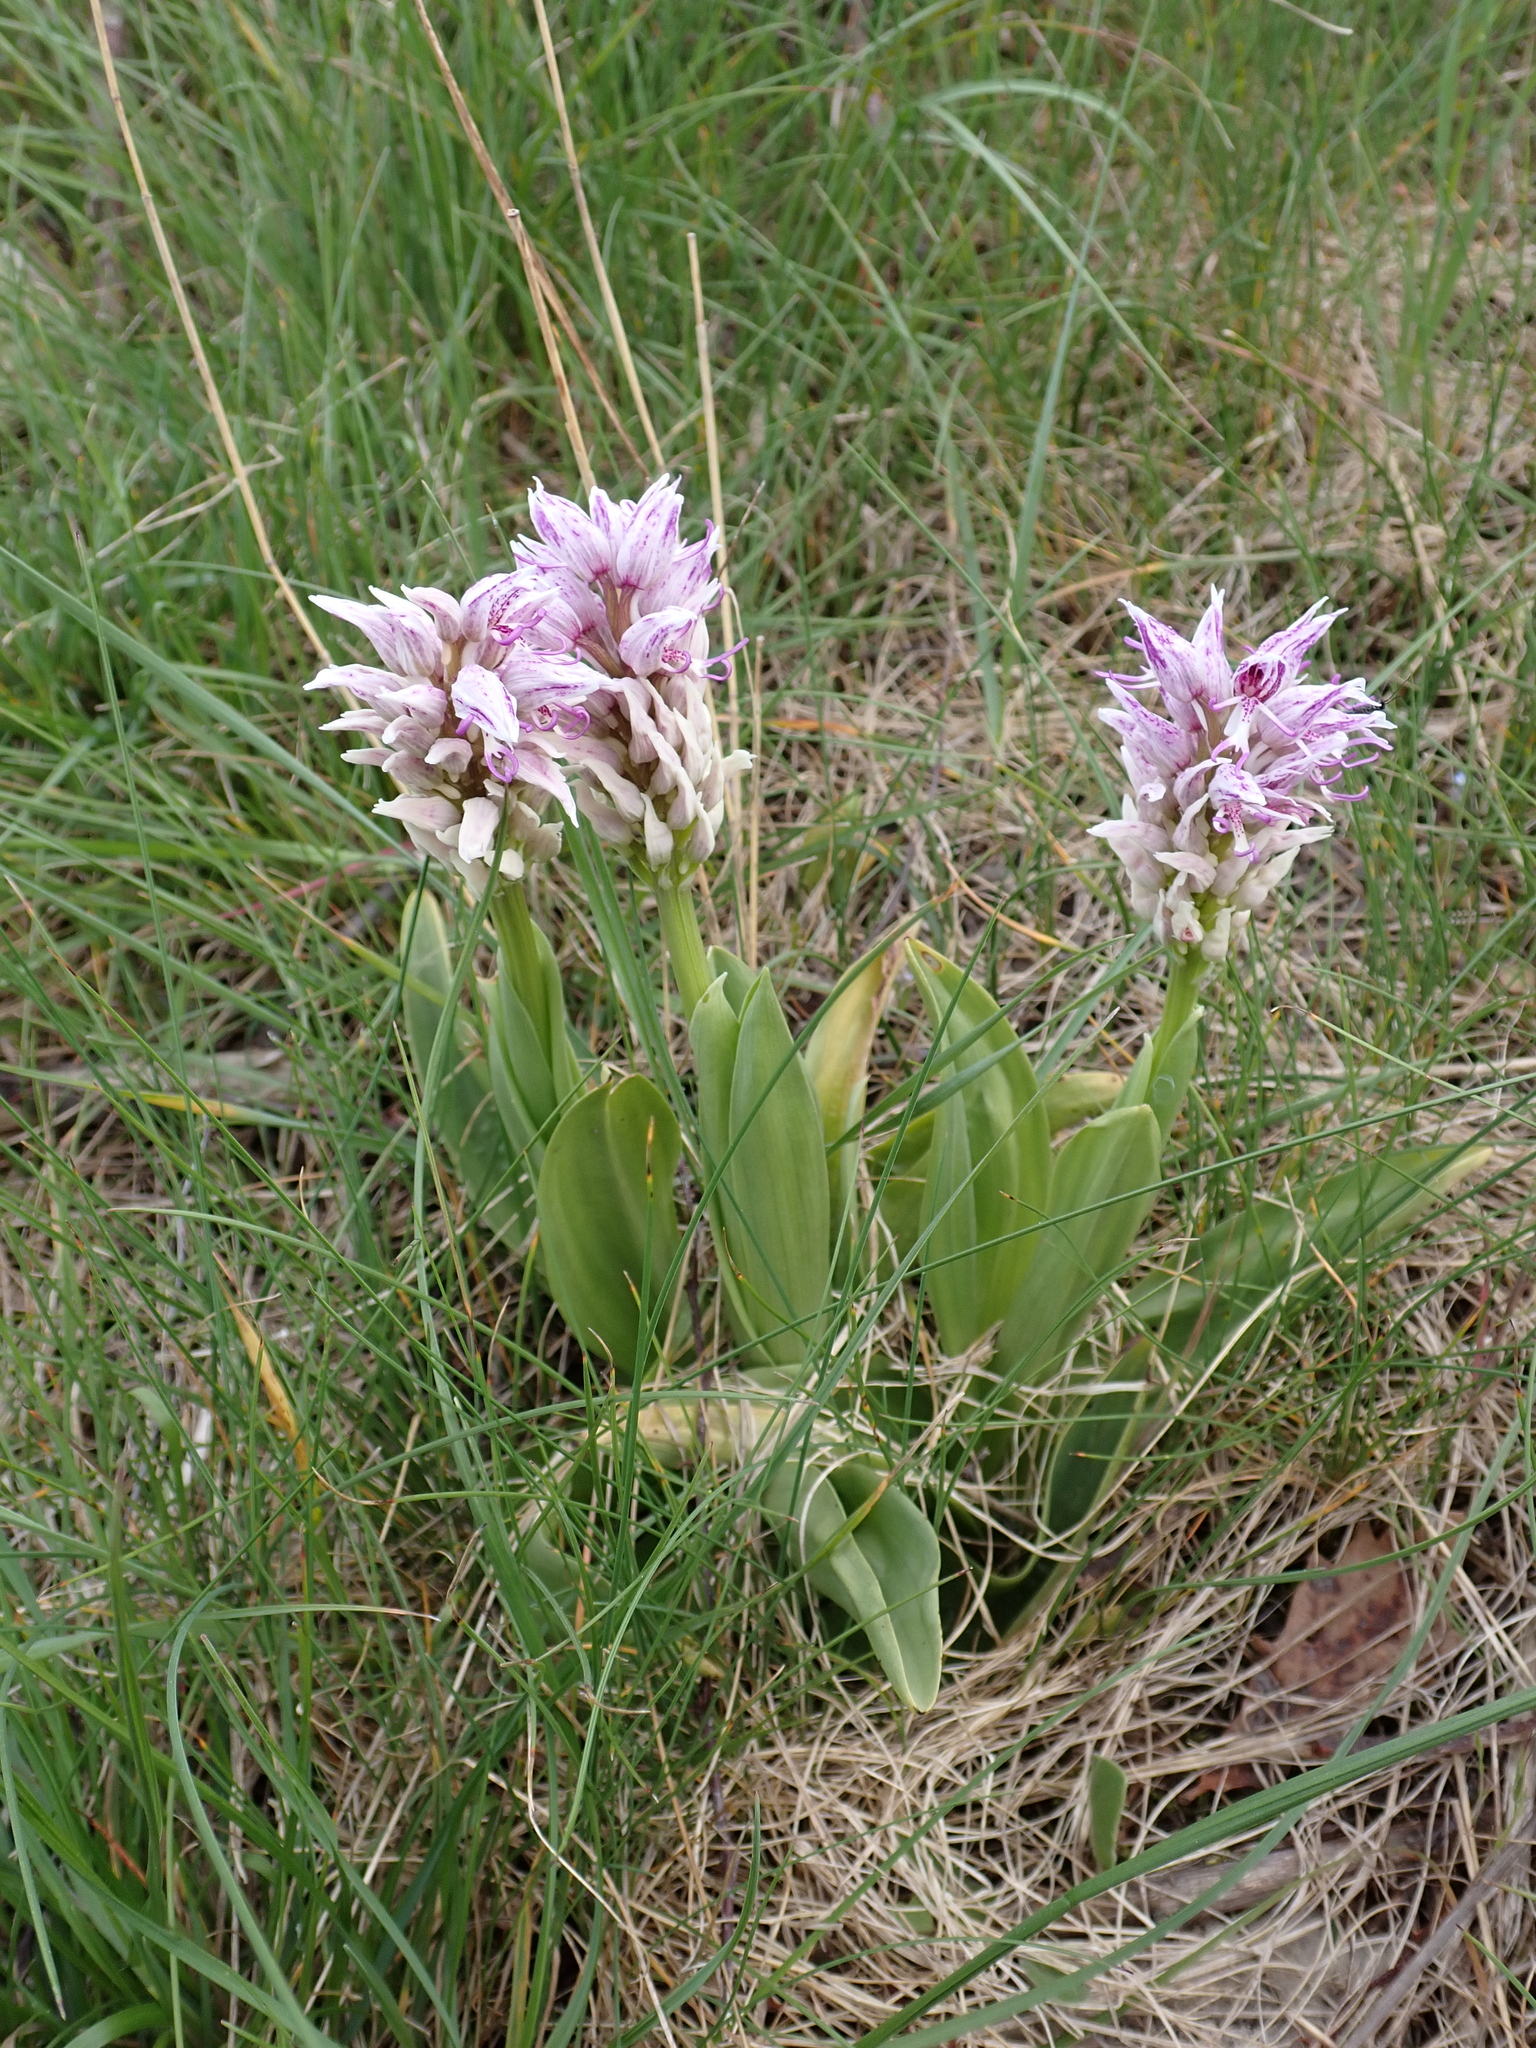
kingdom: Plantae
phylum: Tracheophyta
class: Liliopsida
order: Asparagales
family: Orchidaceae
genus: Orchis
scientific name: Orchis simia
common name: Monkey orchid
